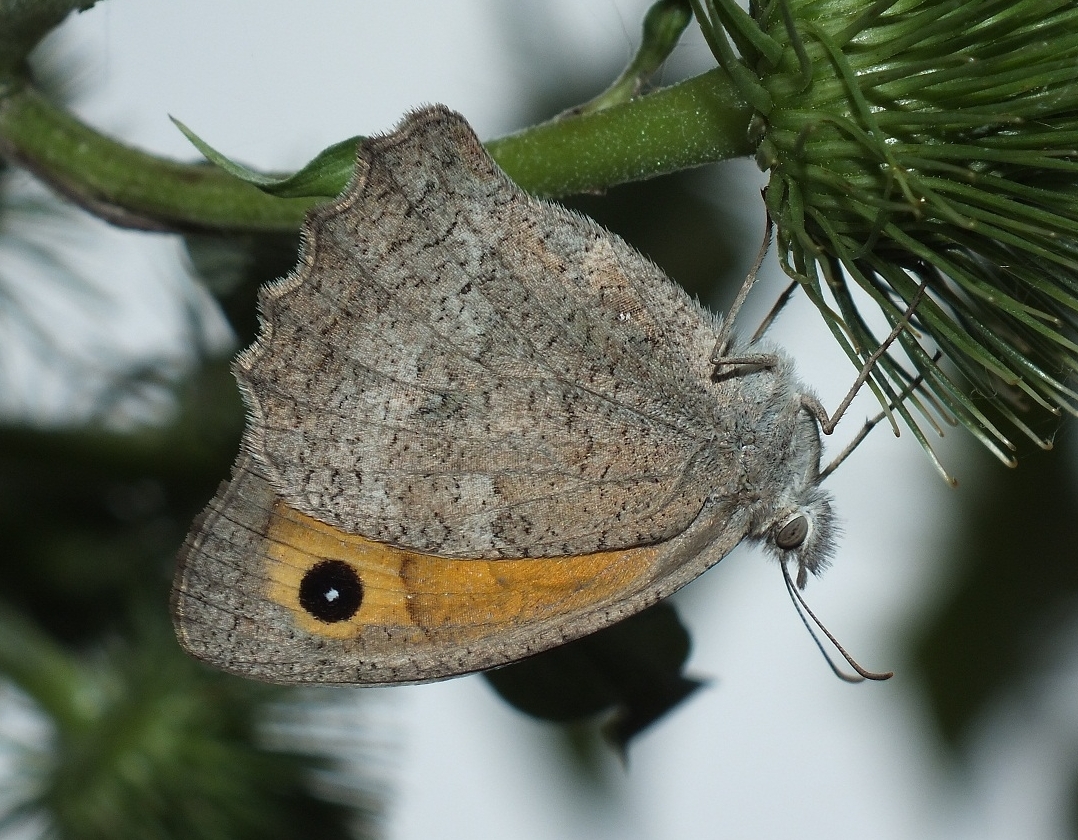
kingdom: Animalia
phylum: Arthropoda
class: Insecta
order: Lepidoptera
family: Nymphalidae
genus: Hyponephele
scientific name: Hyponephele lupinus
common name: Oriental meadow brown
